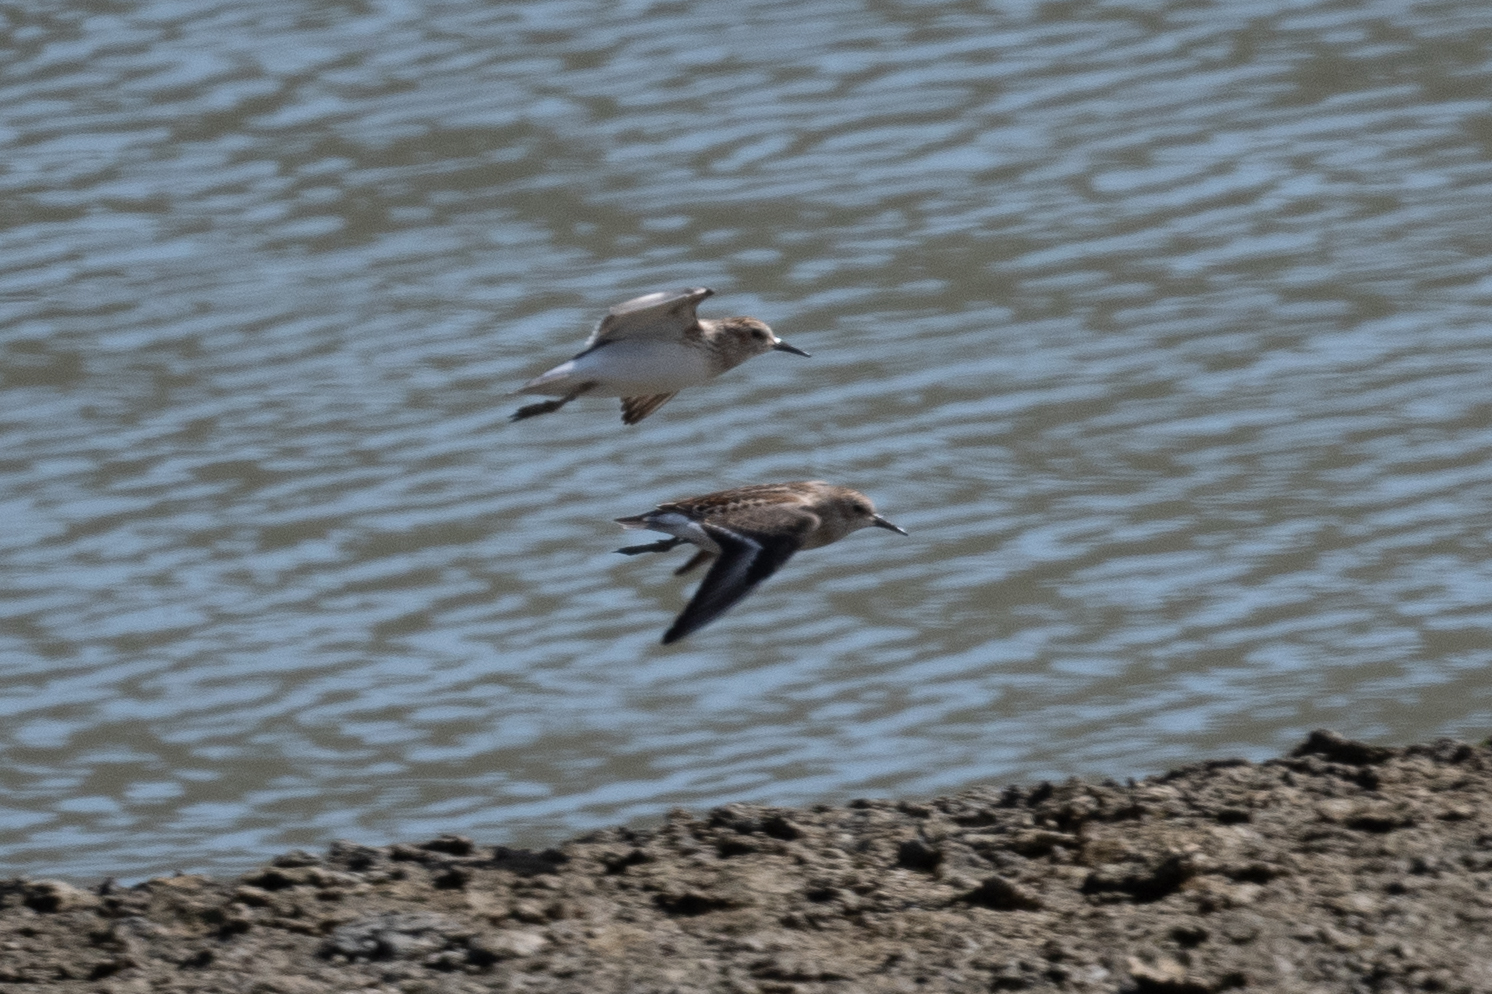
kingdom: Animalia
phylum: Chordata
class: Aves
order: Charadriiformes
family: Scolopacidae
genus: Calidris
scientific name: Calidris minutilla
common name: Least sandpiper
